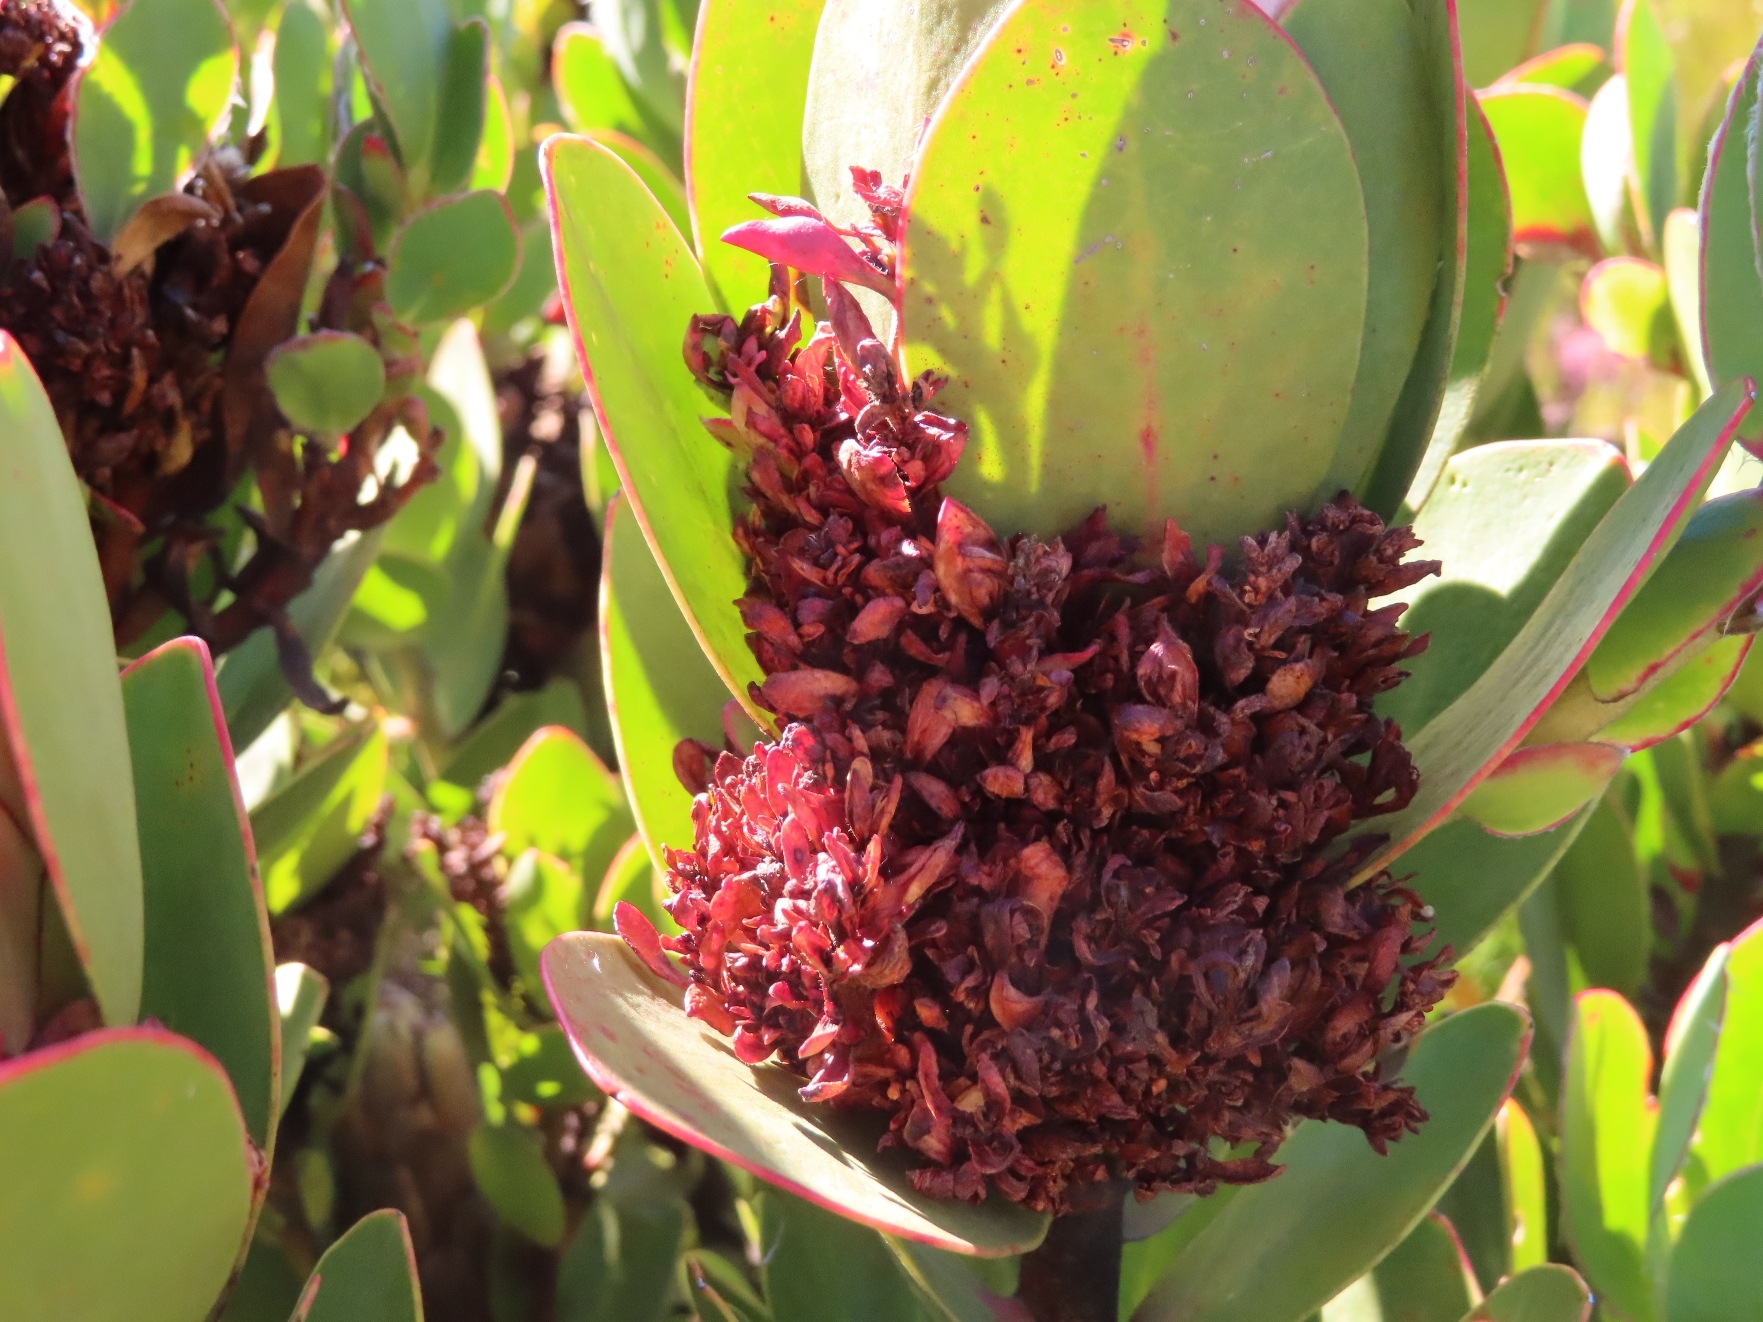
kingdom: Bacteria
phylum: Firmicutes
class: Bacilli
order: Acholeplasmatales
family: Acholeplasmataceae
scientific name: Acholeplasmataceae
